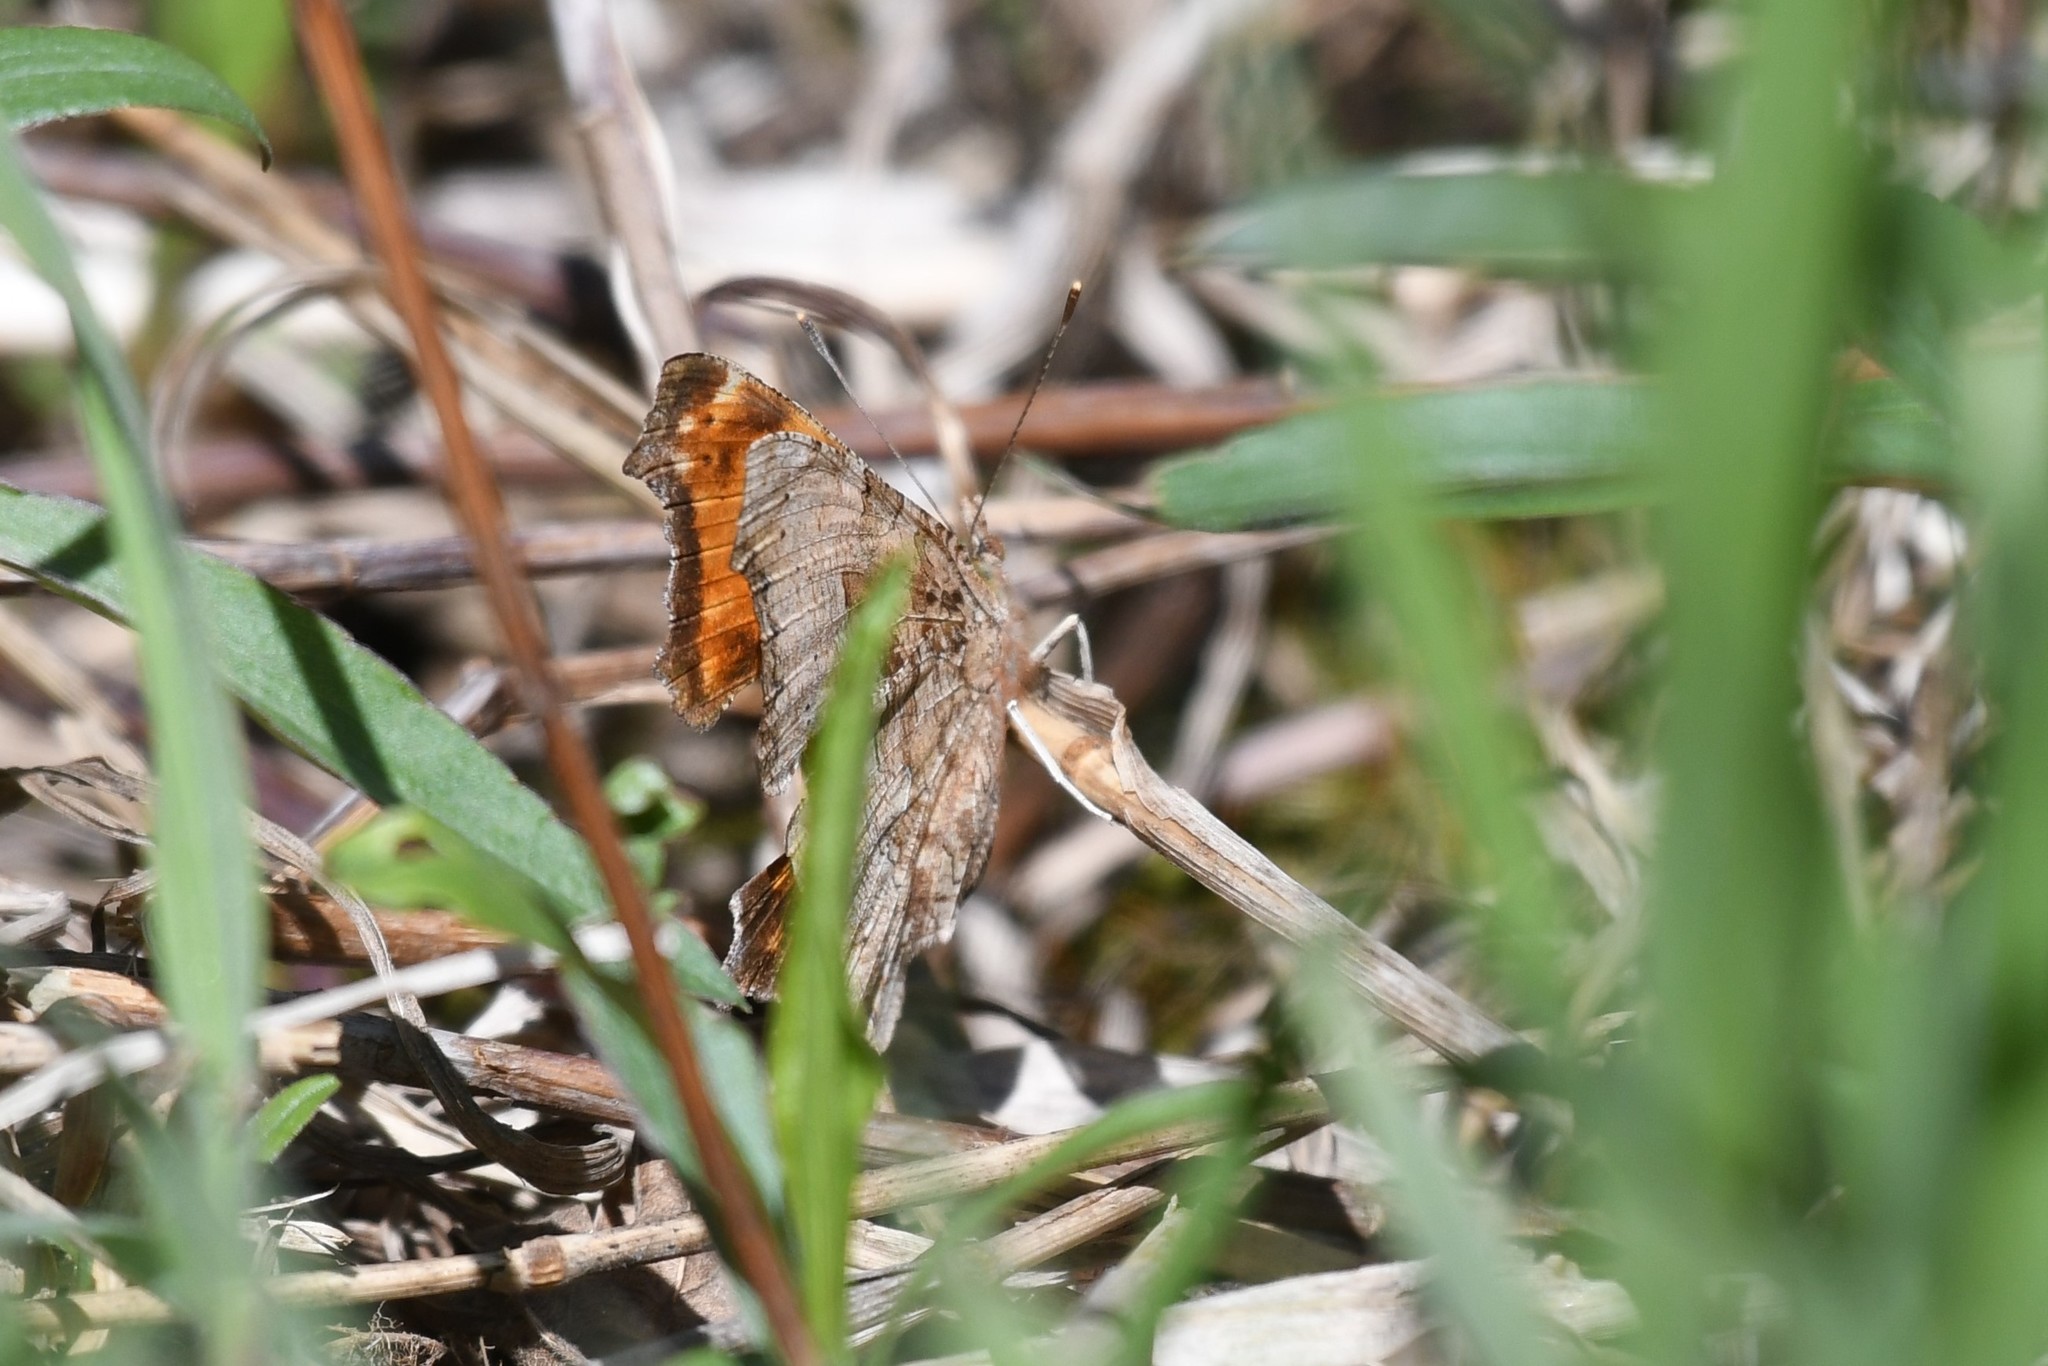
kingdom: Animalia
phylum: Arthropoda
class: Insecta
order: Lepidoptera
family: Nymphalidae
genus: Polygonia
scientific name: Polygonia comma
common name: Eastern comma
